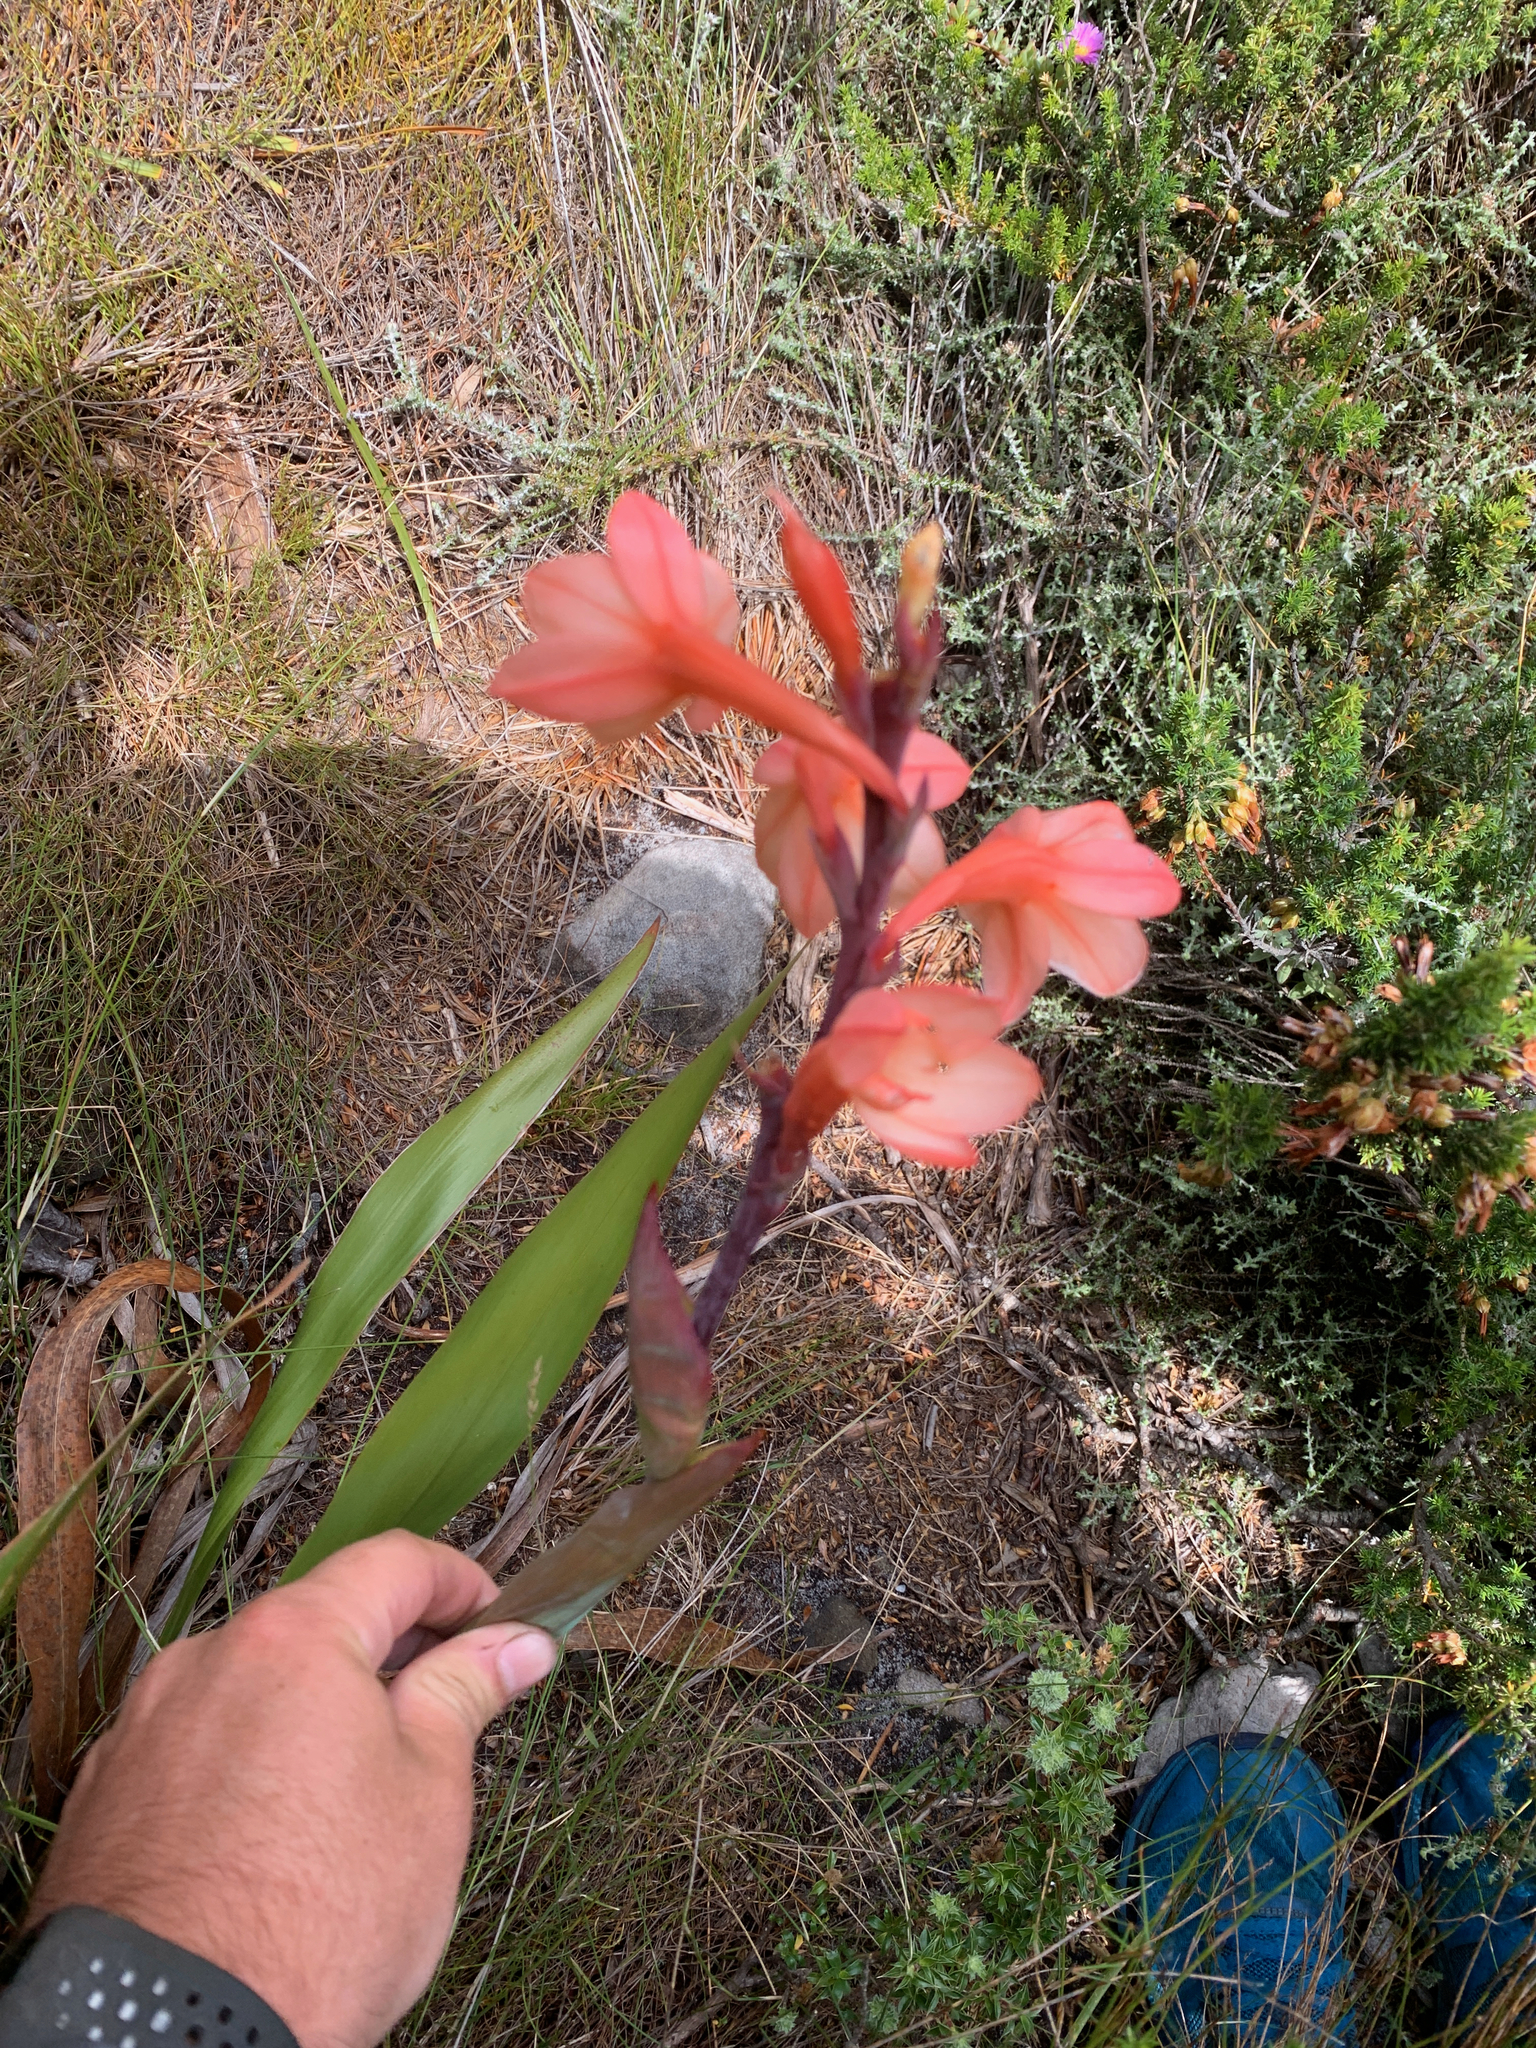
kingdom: Plantae
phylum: Tracheophyta
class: Liliopsida
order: Asparagales
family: Iridaceae
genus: Watsonia
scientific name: Watsonia tabularis
